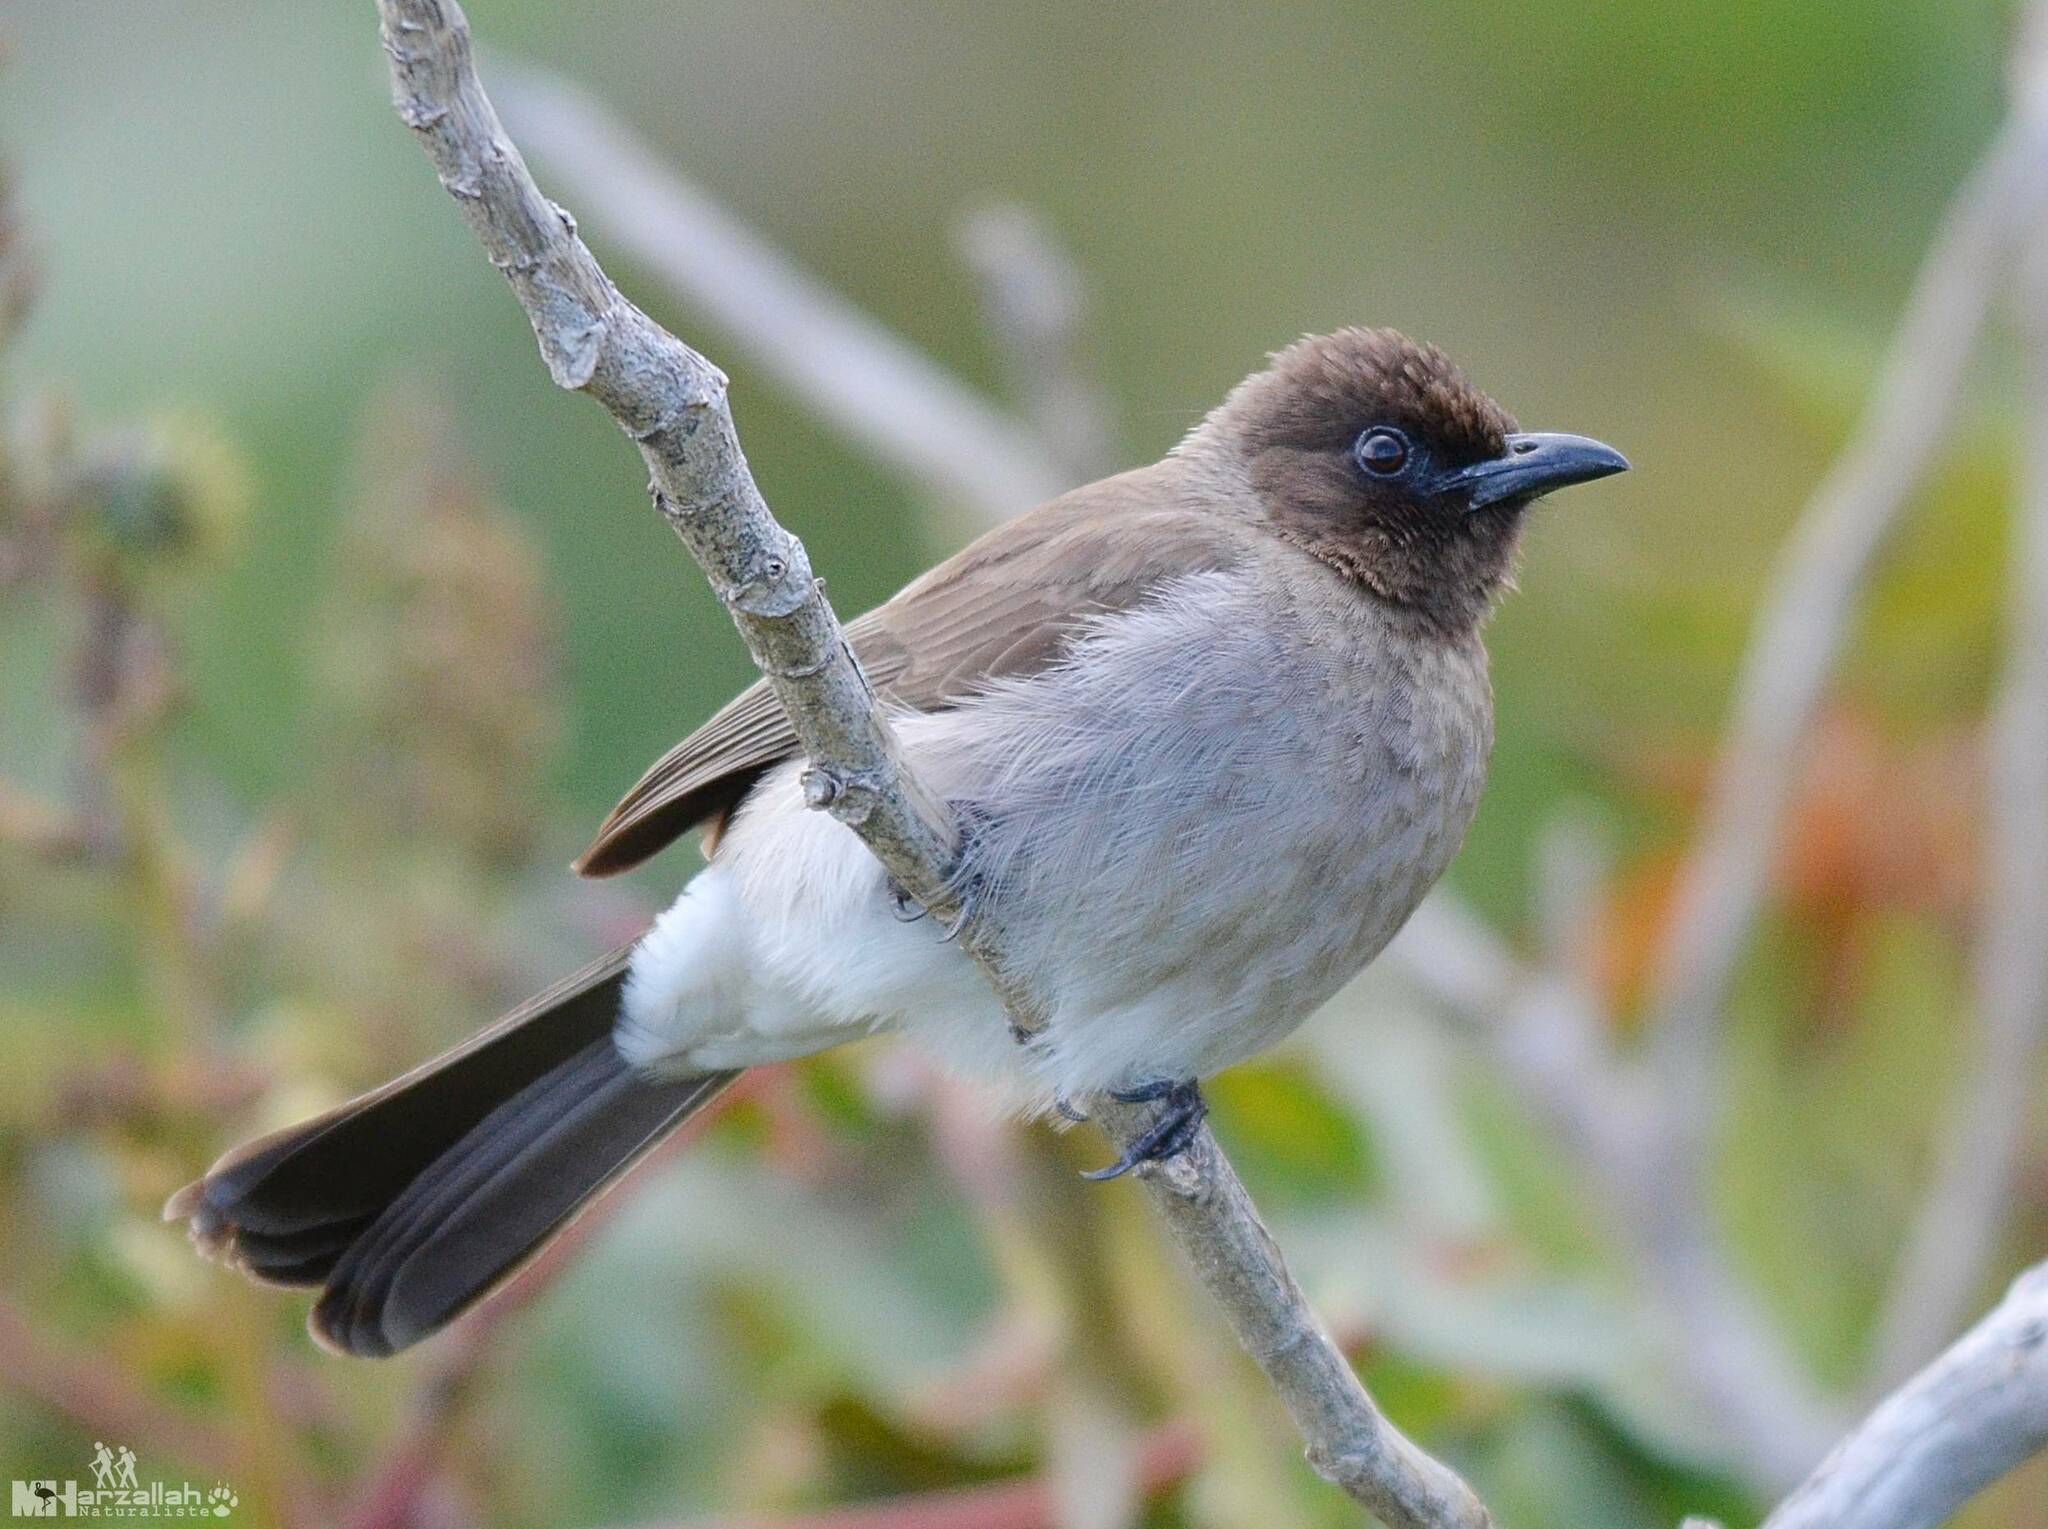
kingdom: Animalia
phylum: Chordata
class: Aves
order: Passeriformes
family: Pycnonotidae
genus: Pycnonotus
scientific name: Pycnonotus barbatus
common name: Common bulbul
